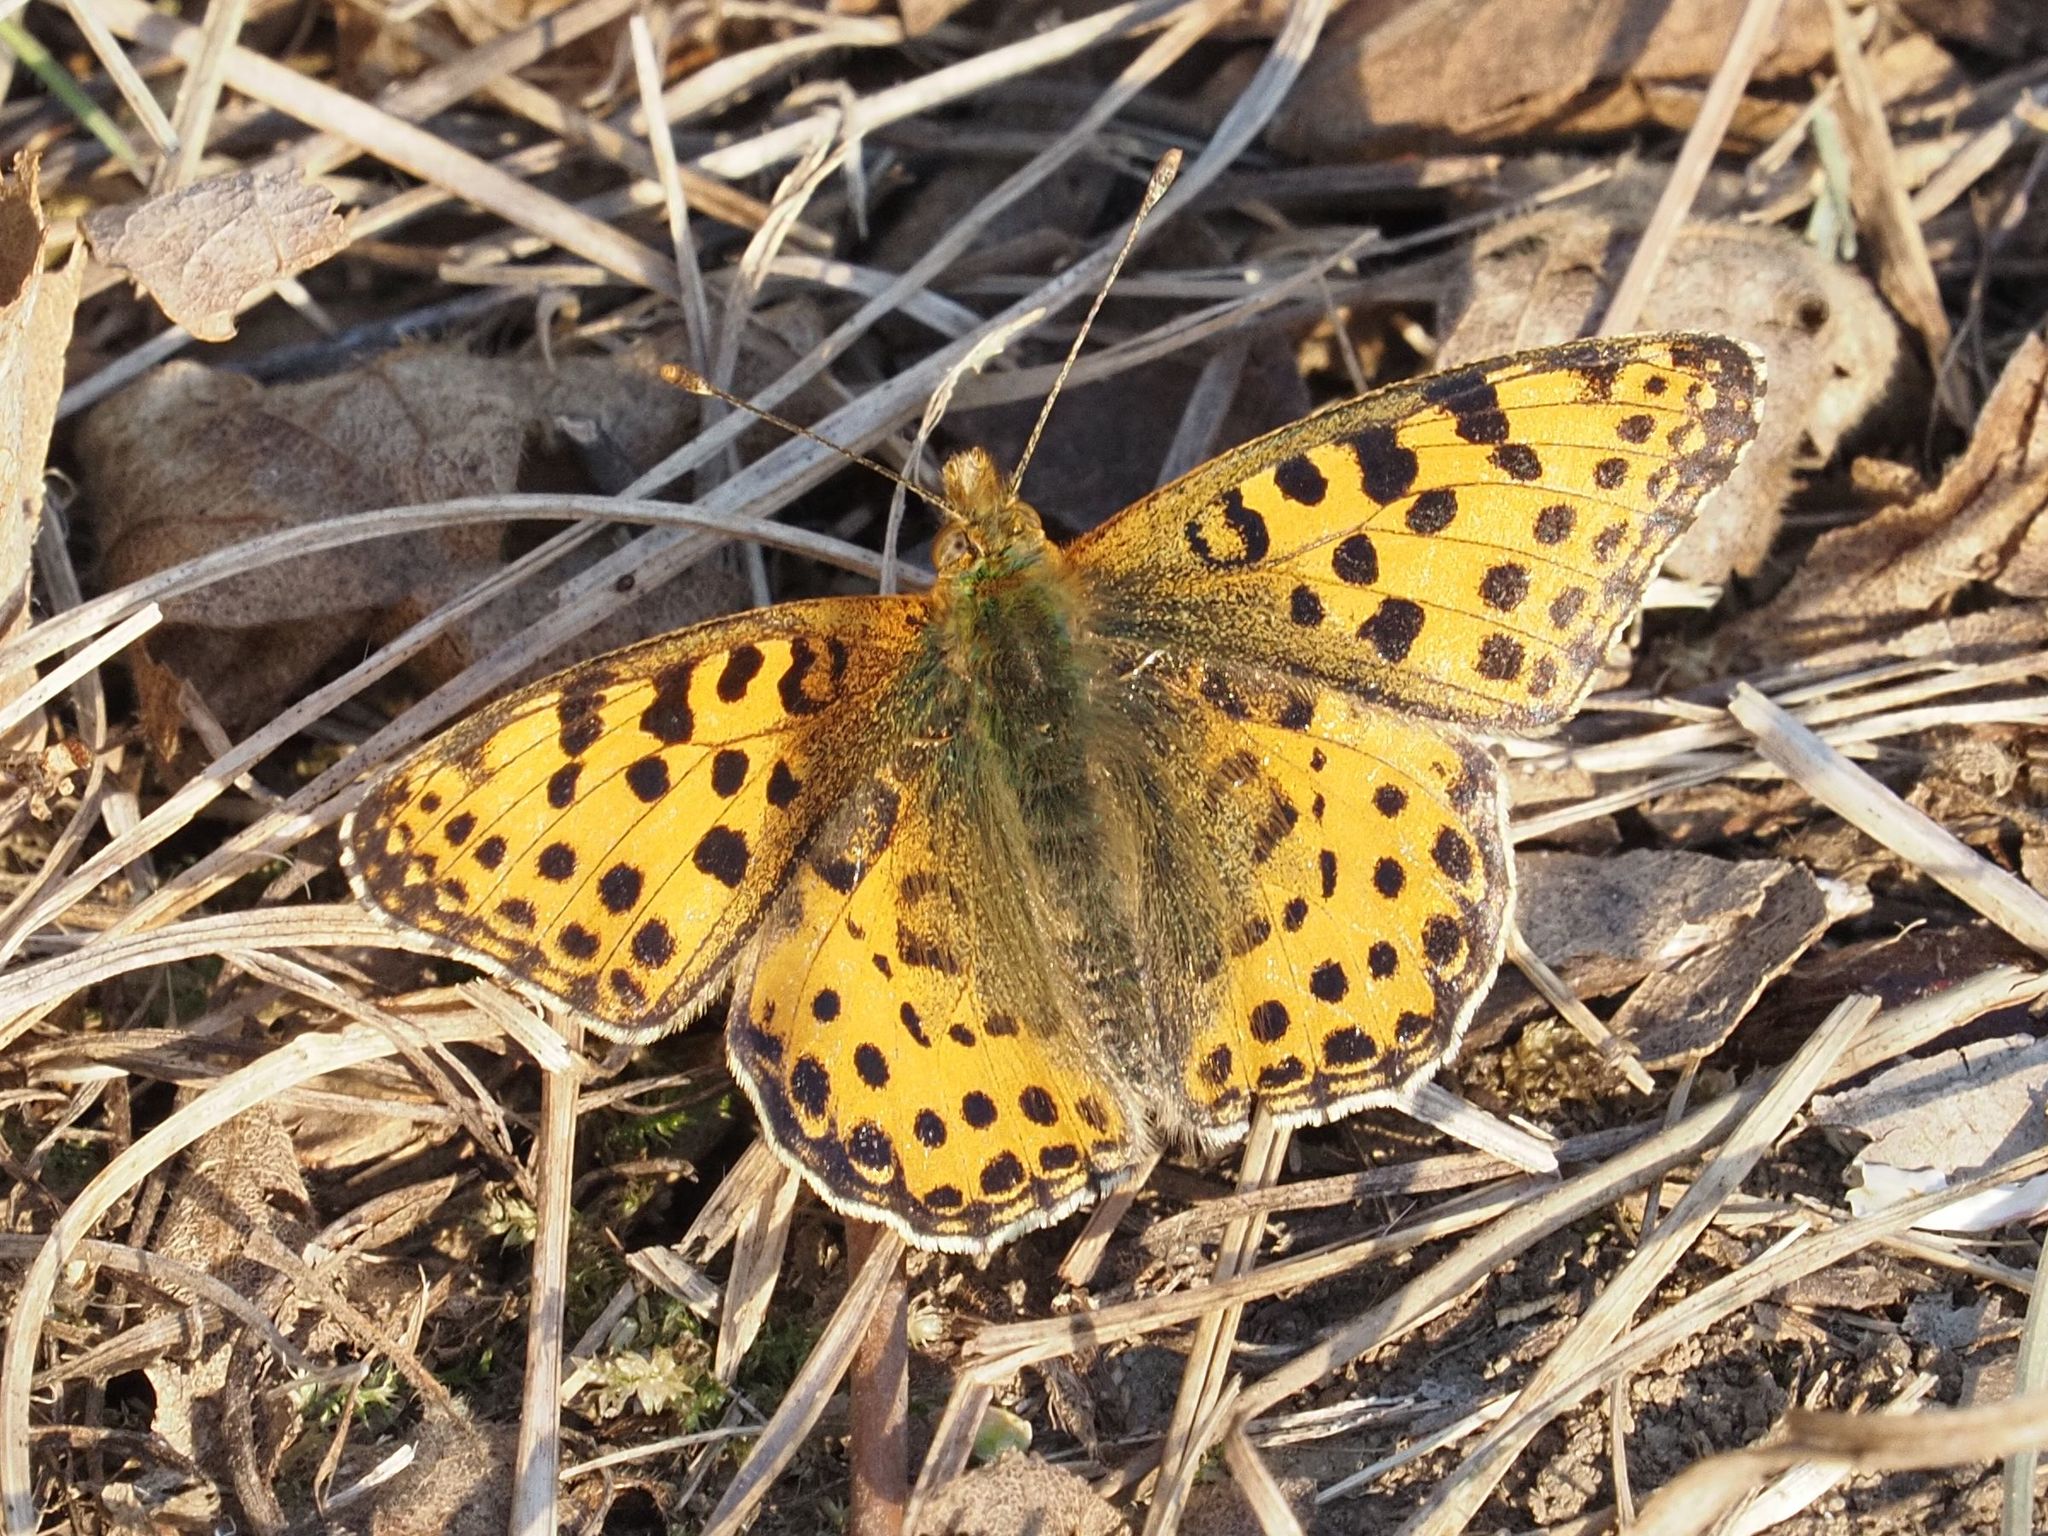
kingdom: Animalia
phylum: Arthropoda
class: Insecta
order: Lepidoptera
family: Nymphalidae
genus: Issoria
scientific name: Issoria lathonia
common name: Queen of spain fritillary
